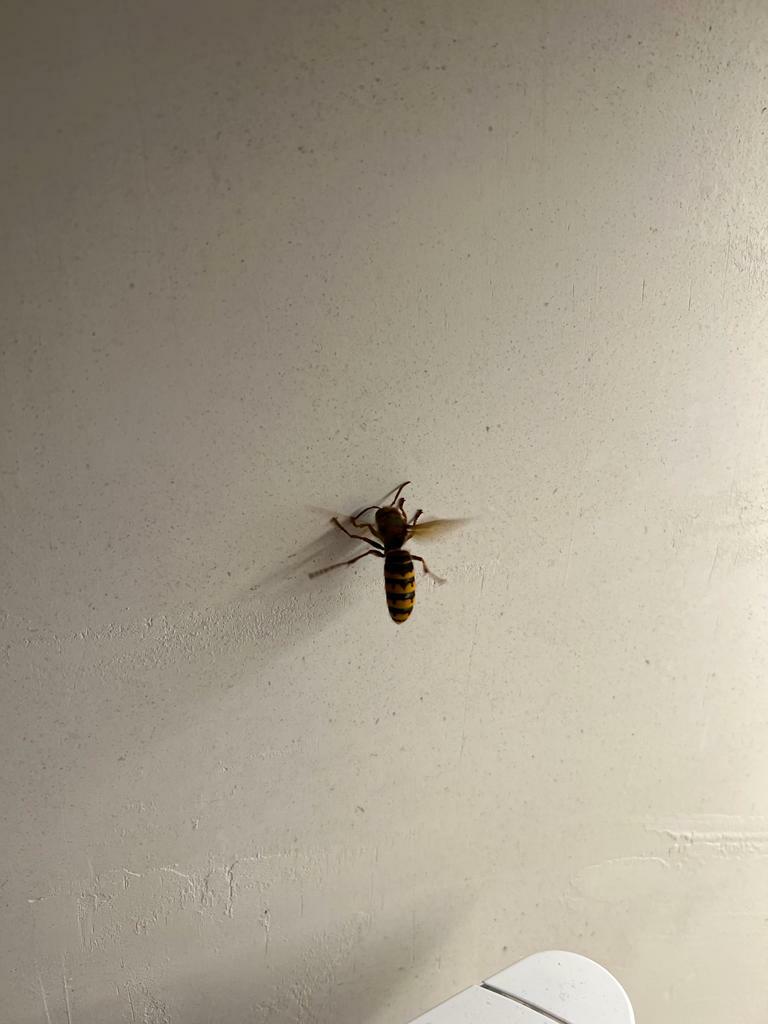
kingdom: Animalia
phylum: Arthropoda
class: Insecta
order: Hymenoptera
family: Vespidae
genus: Vespa
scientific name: Vespa crabro
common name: Hornet
